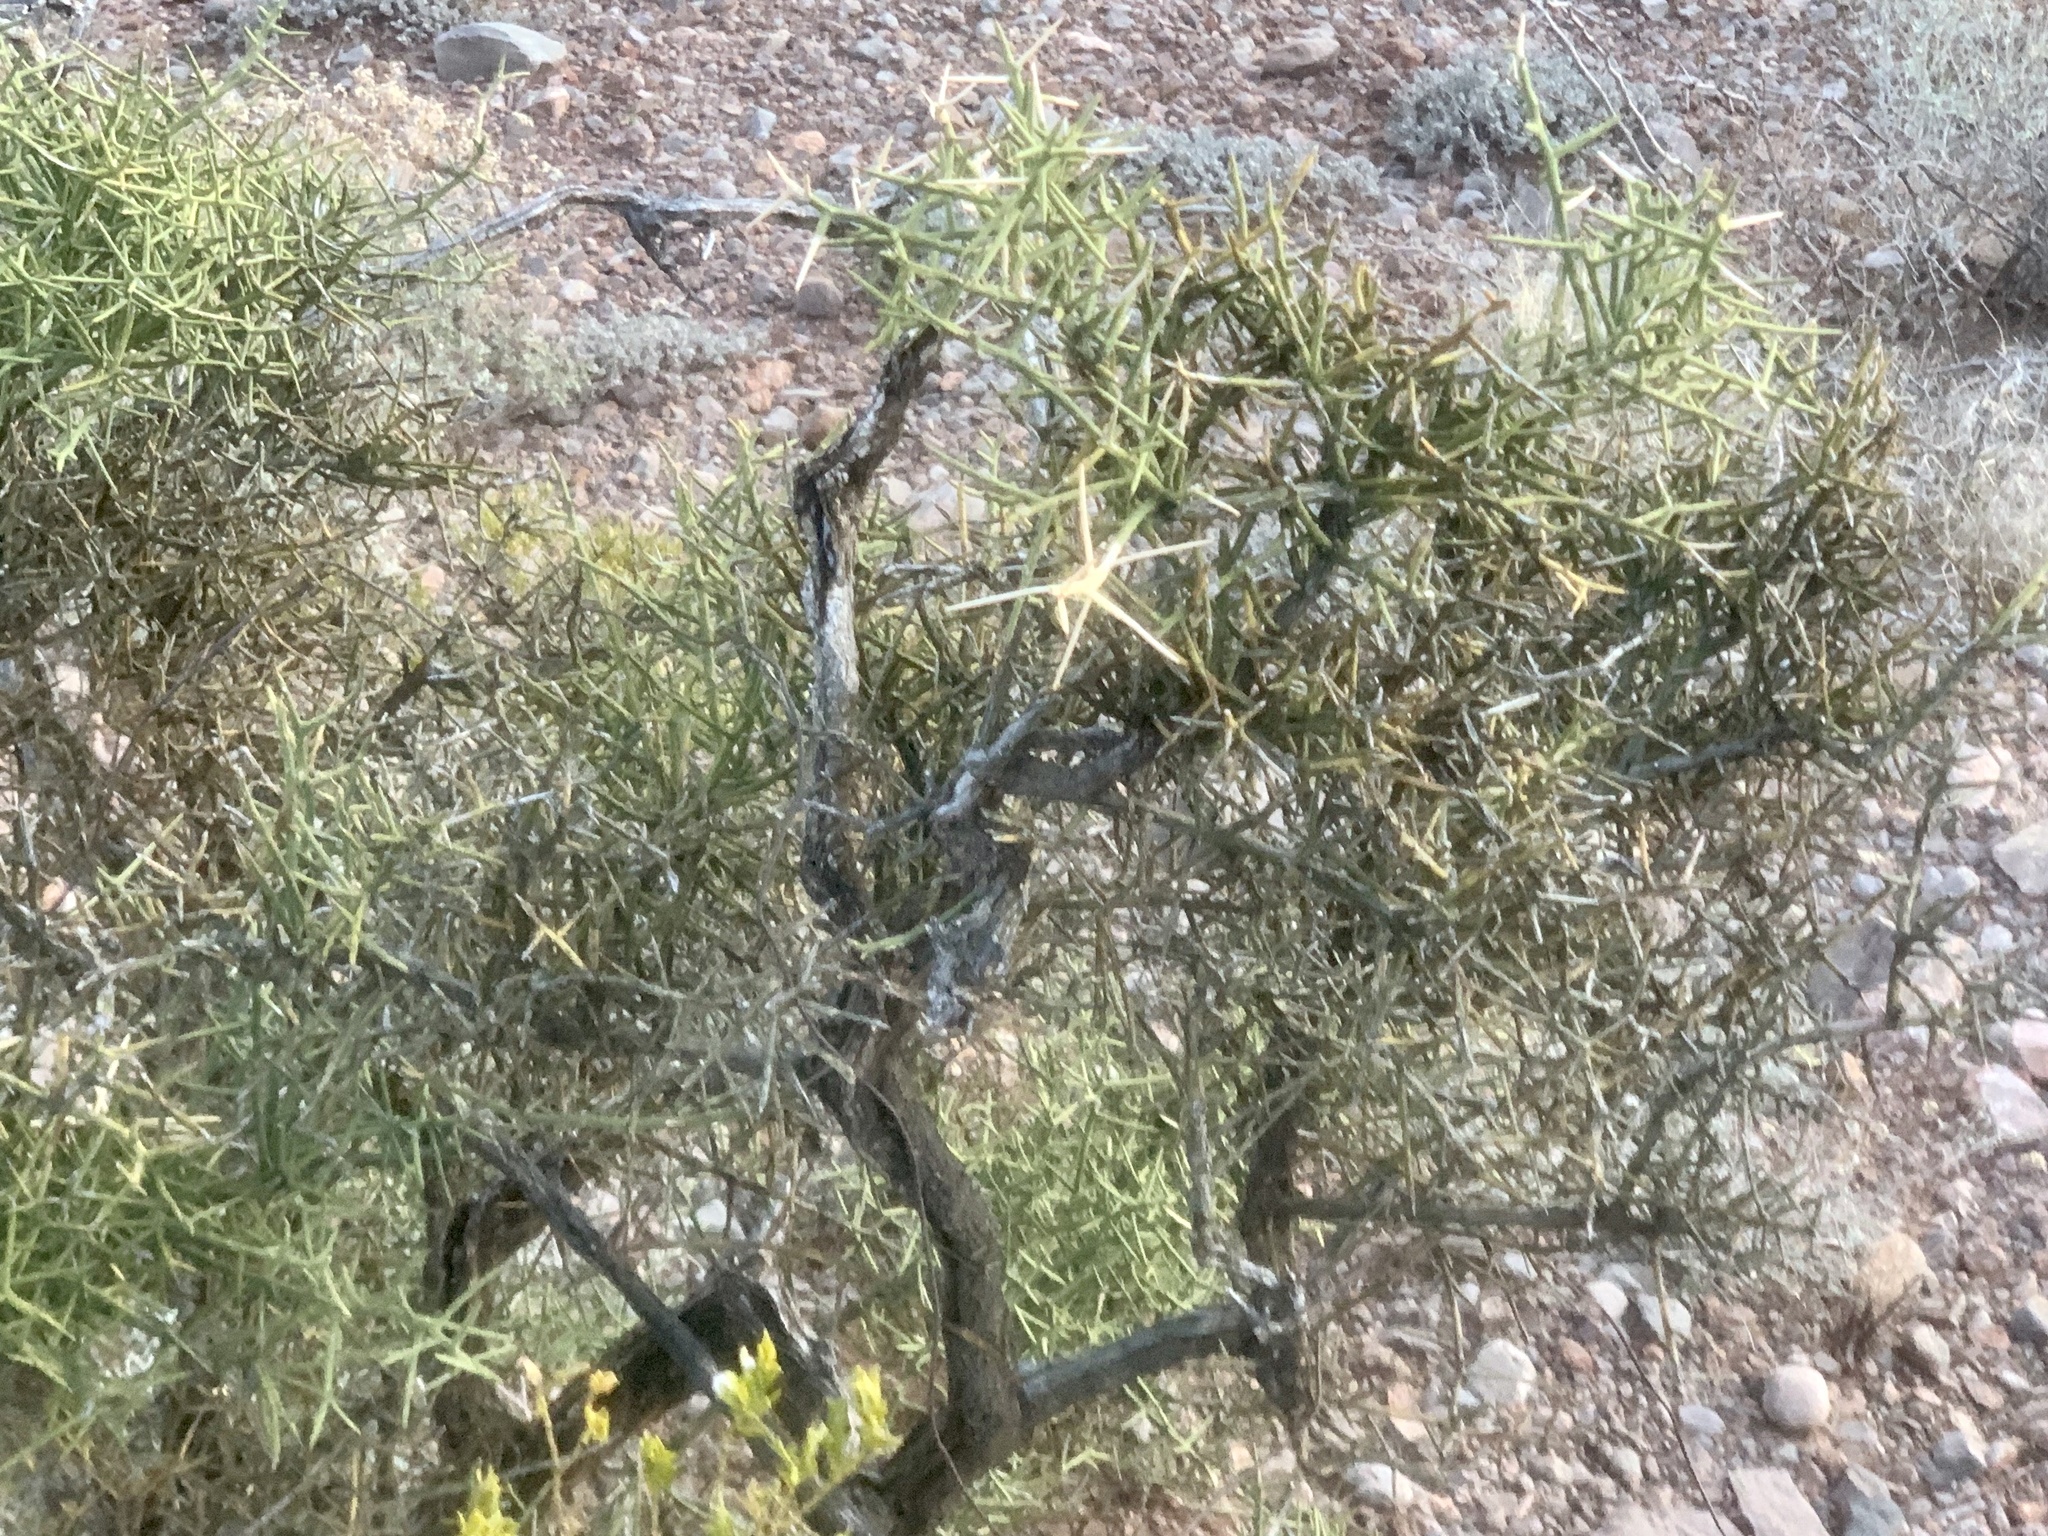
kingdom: Plantae
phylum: Tracheophyta
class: Magnoliopsida
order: Brassicales
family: Koeberliniaceae
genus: Koeberlinia
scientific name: Koeberlinia spinosa
